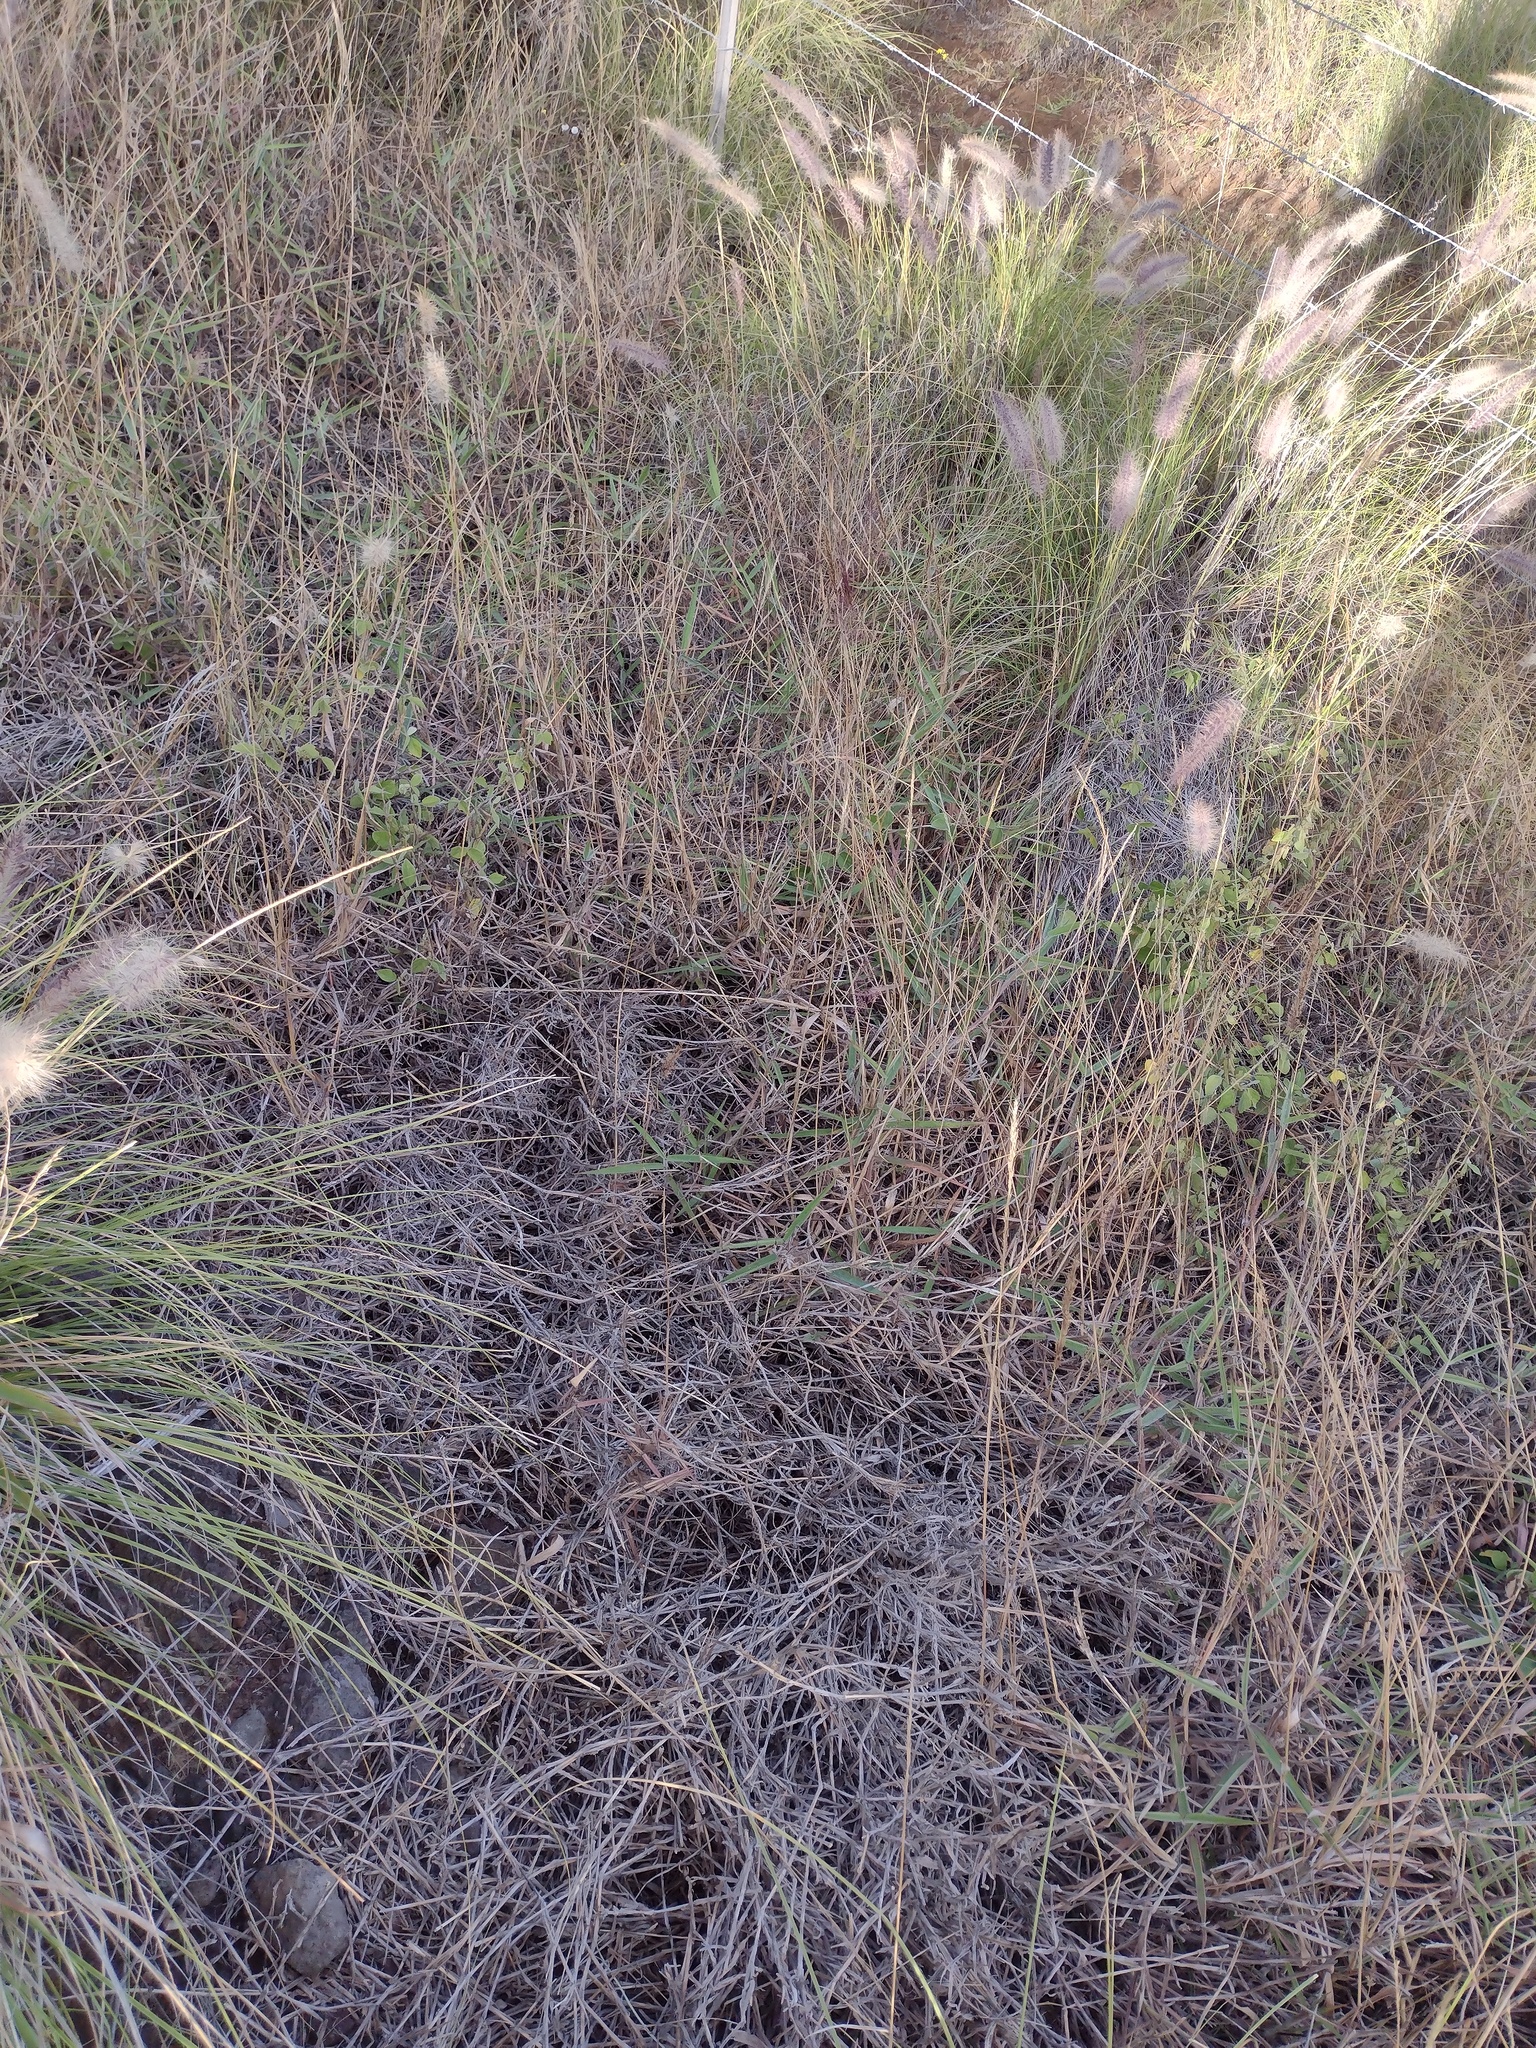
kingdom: Plantae
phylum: Tracheophyta
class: Liliopsida
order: Poales
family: Poaceae
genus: Cenchrus
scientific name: Cenchrus setaceus
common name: Crimson fountaingrass
